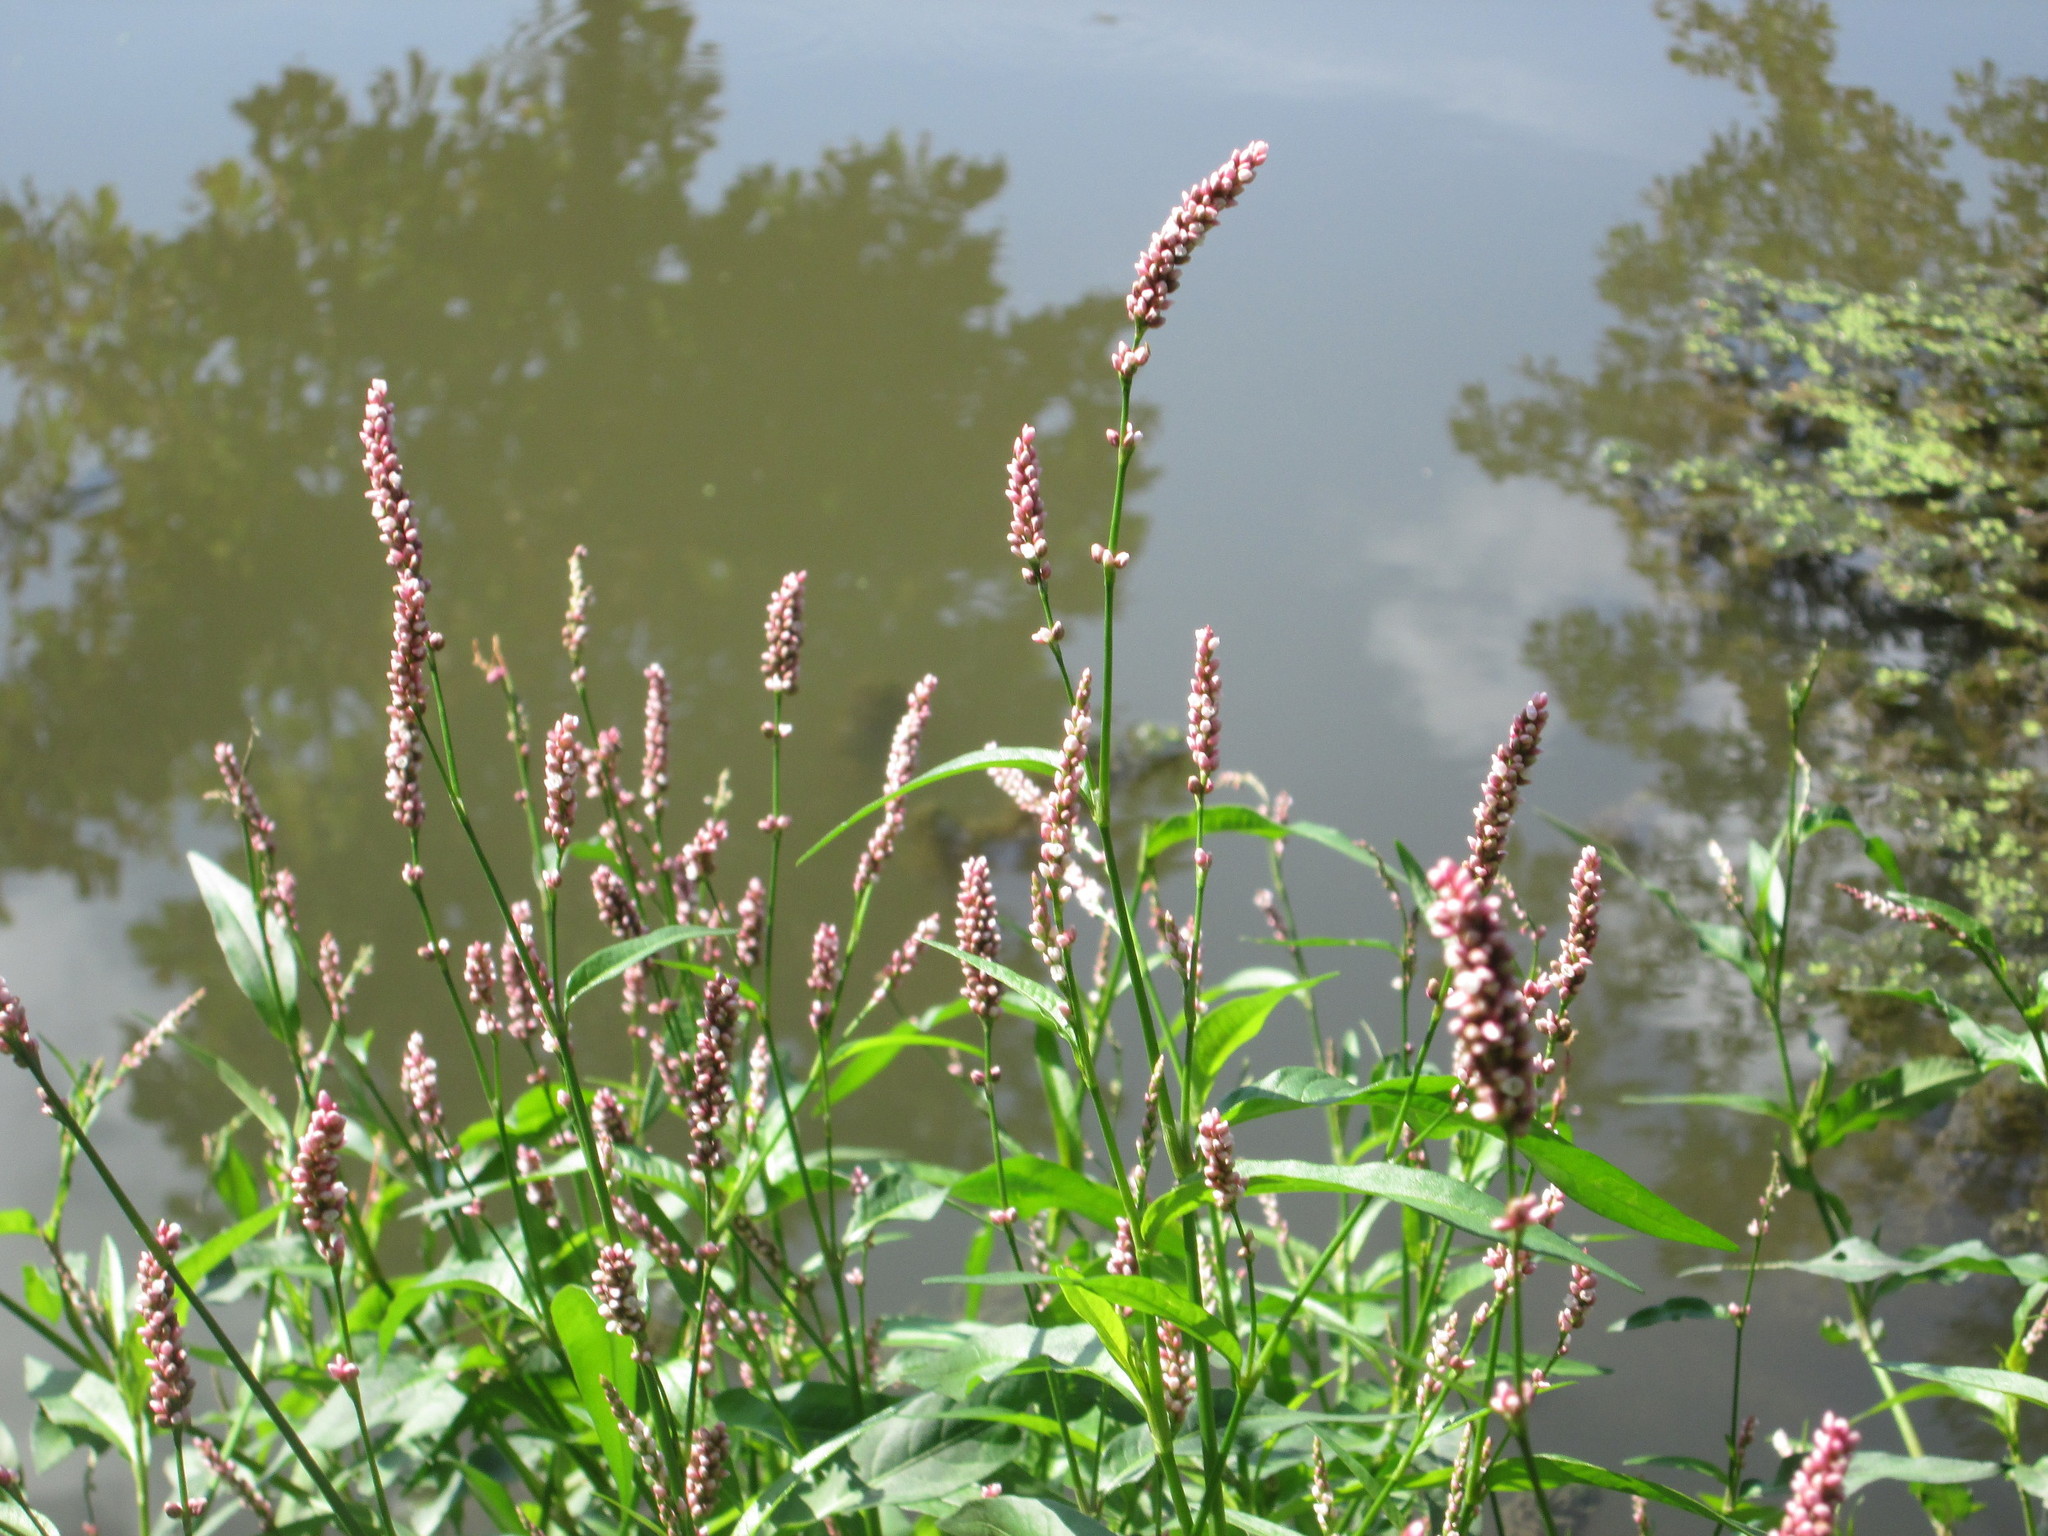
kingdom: Plantae
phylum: Tracheophyta
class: Magnoliopsida
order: Caryophyllales
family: Polygonaceae
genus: Persicaria
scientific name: Persicaria amphibia
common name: Amphibious bistort
